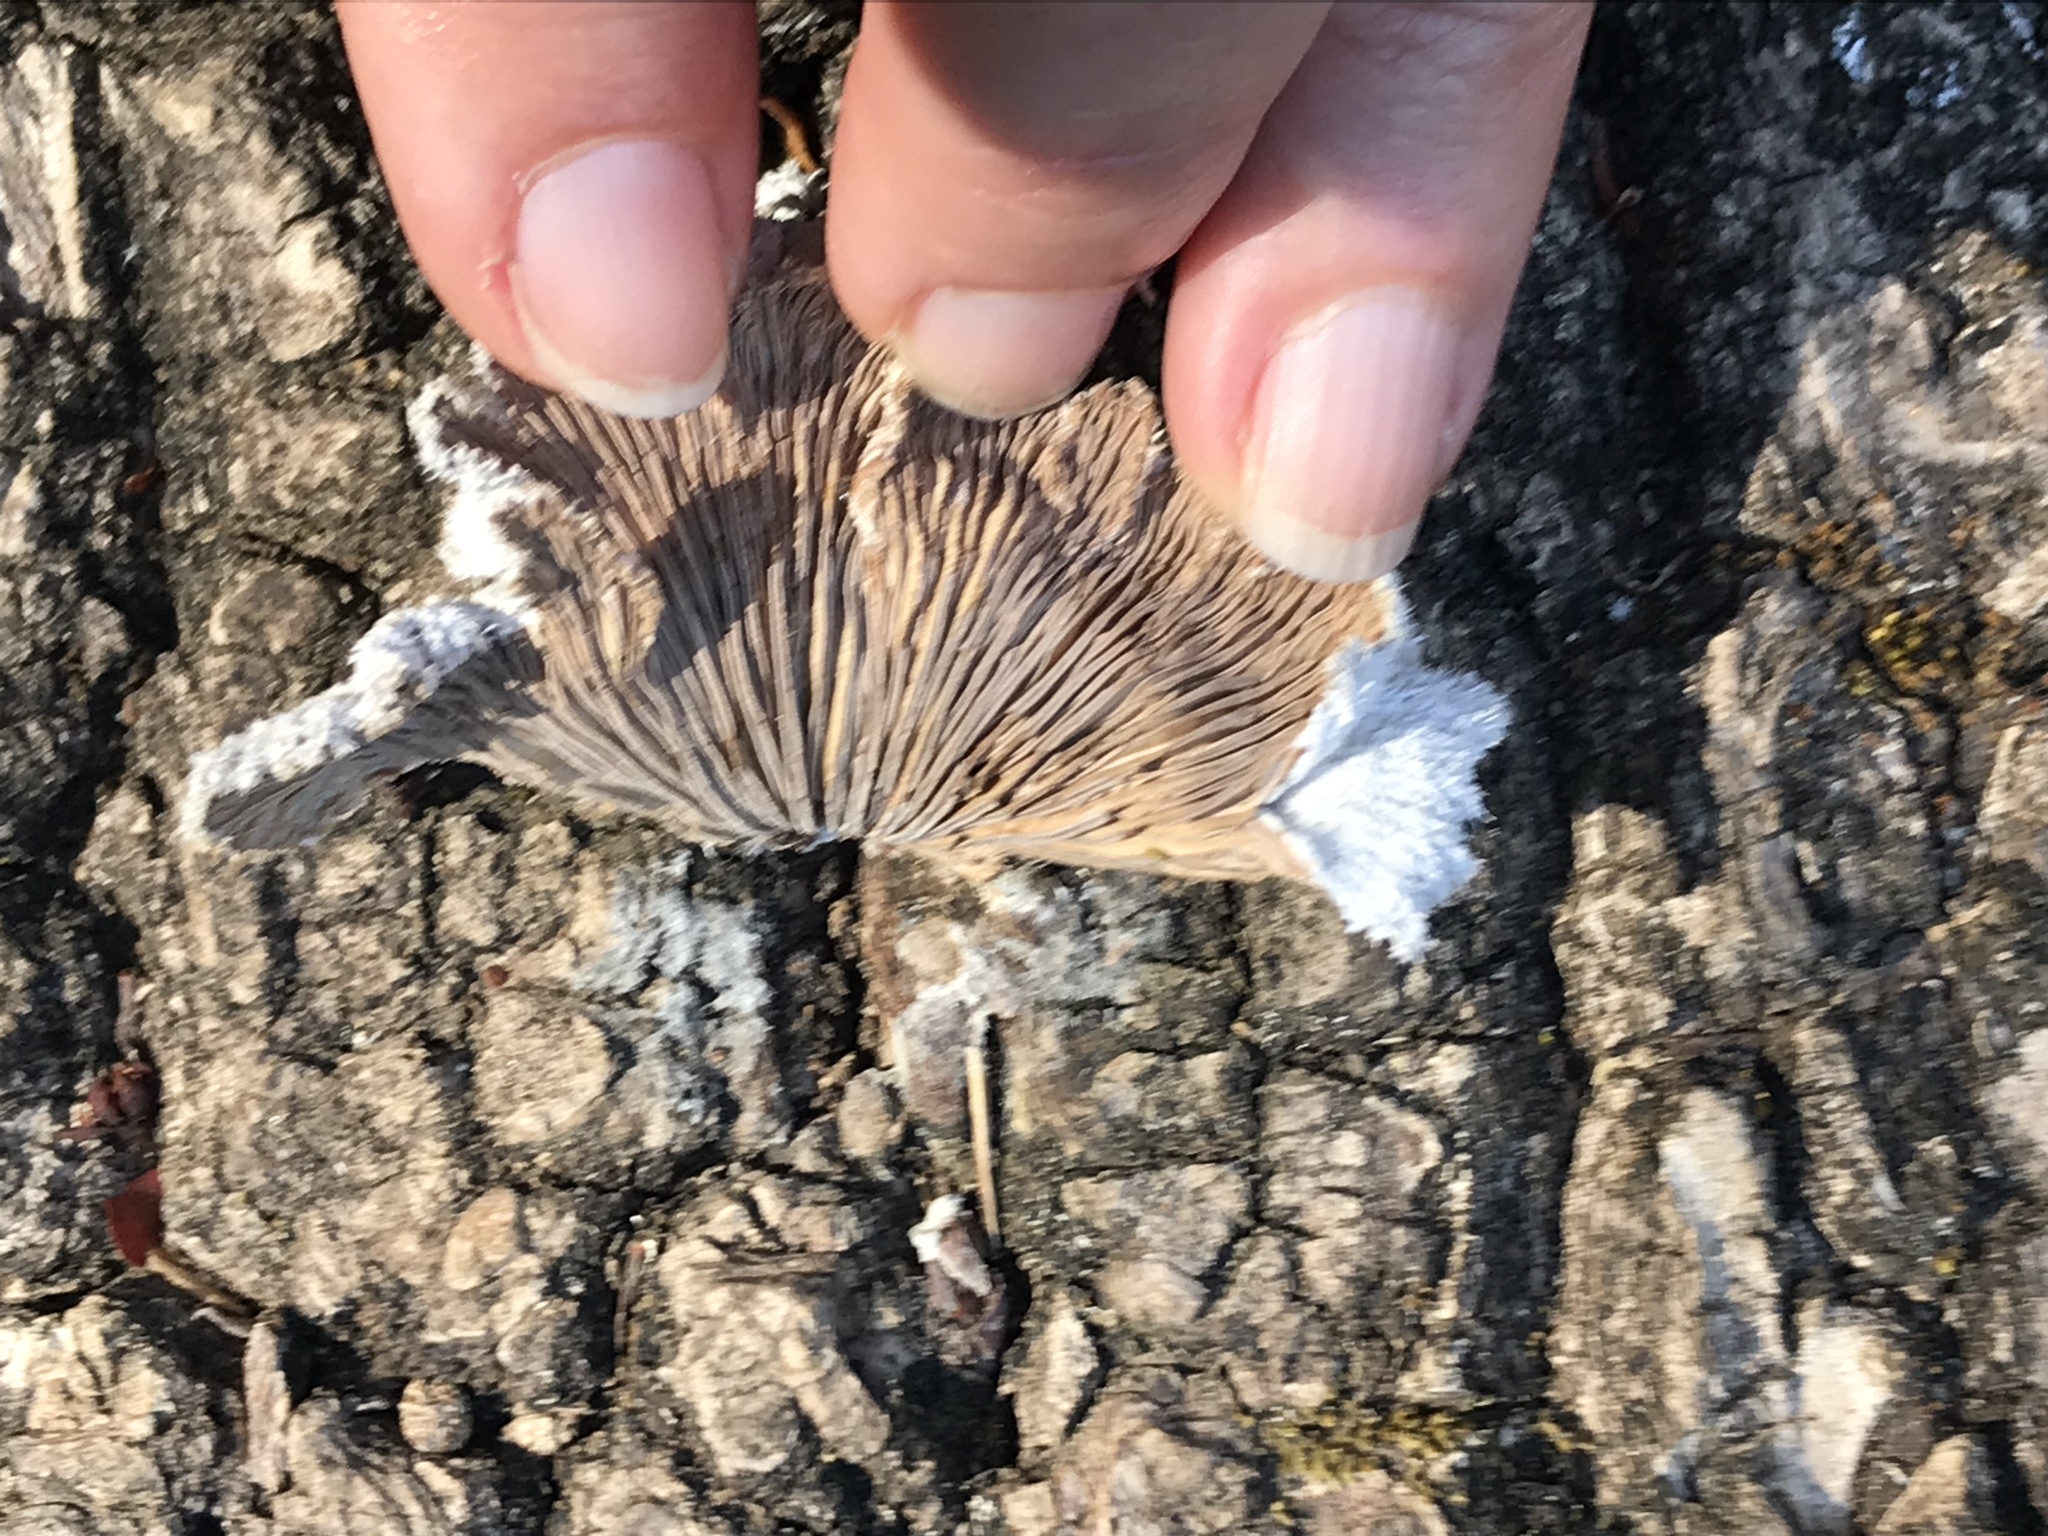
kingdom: Fungi
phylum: Basidiomycota
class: Agaricomycetes
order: Agaricales
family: Schizophyllaceae
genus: Schizophyllum
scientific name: Schizophyllum commune
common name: Common porecrust
